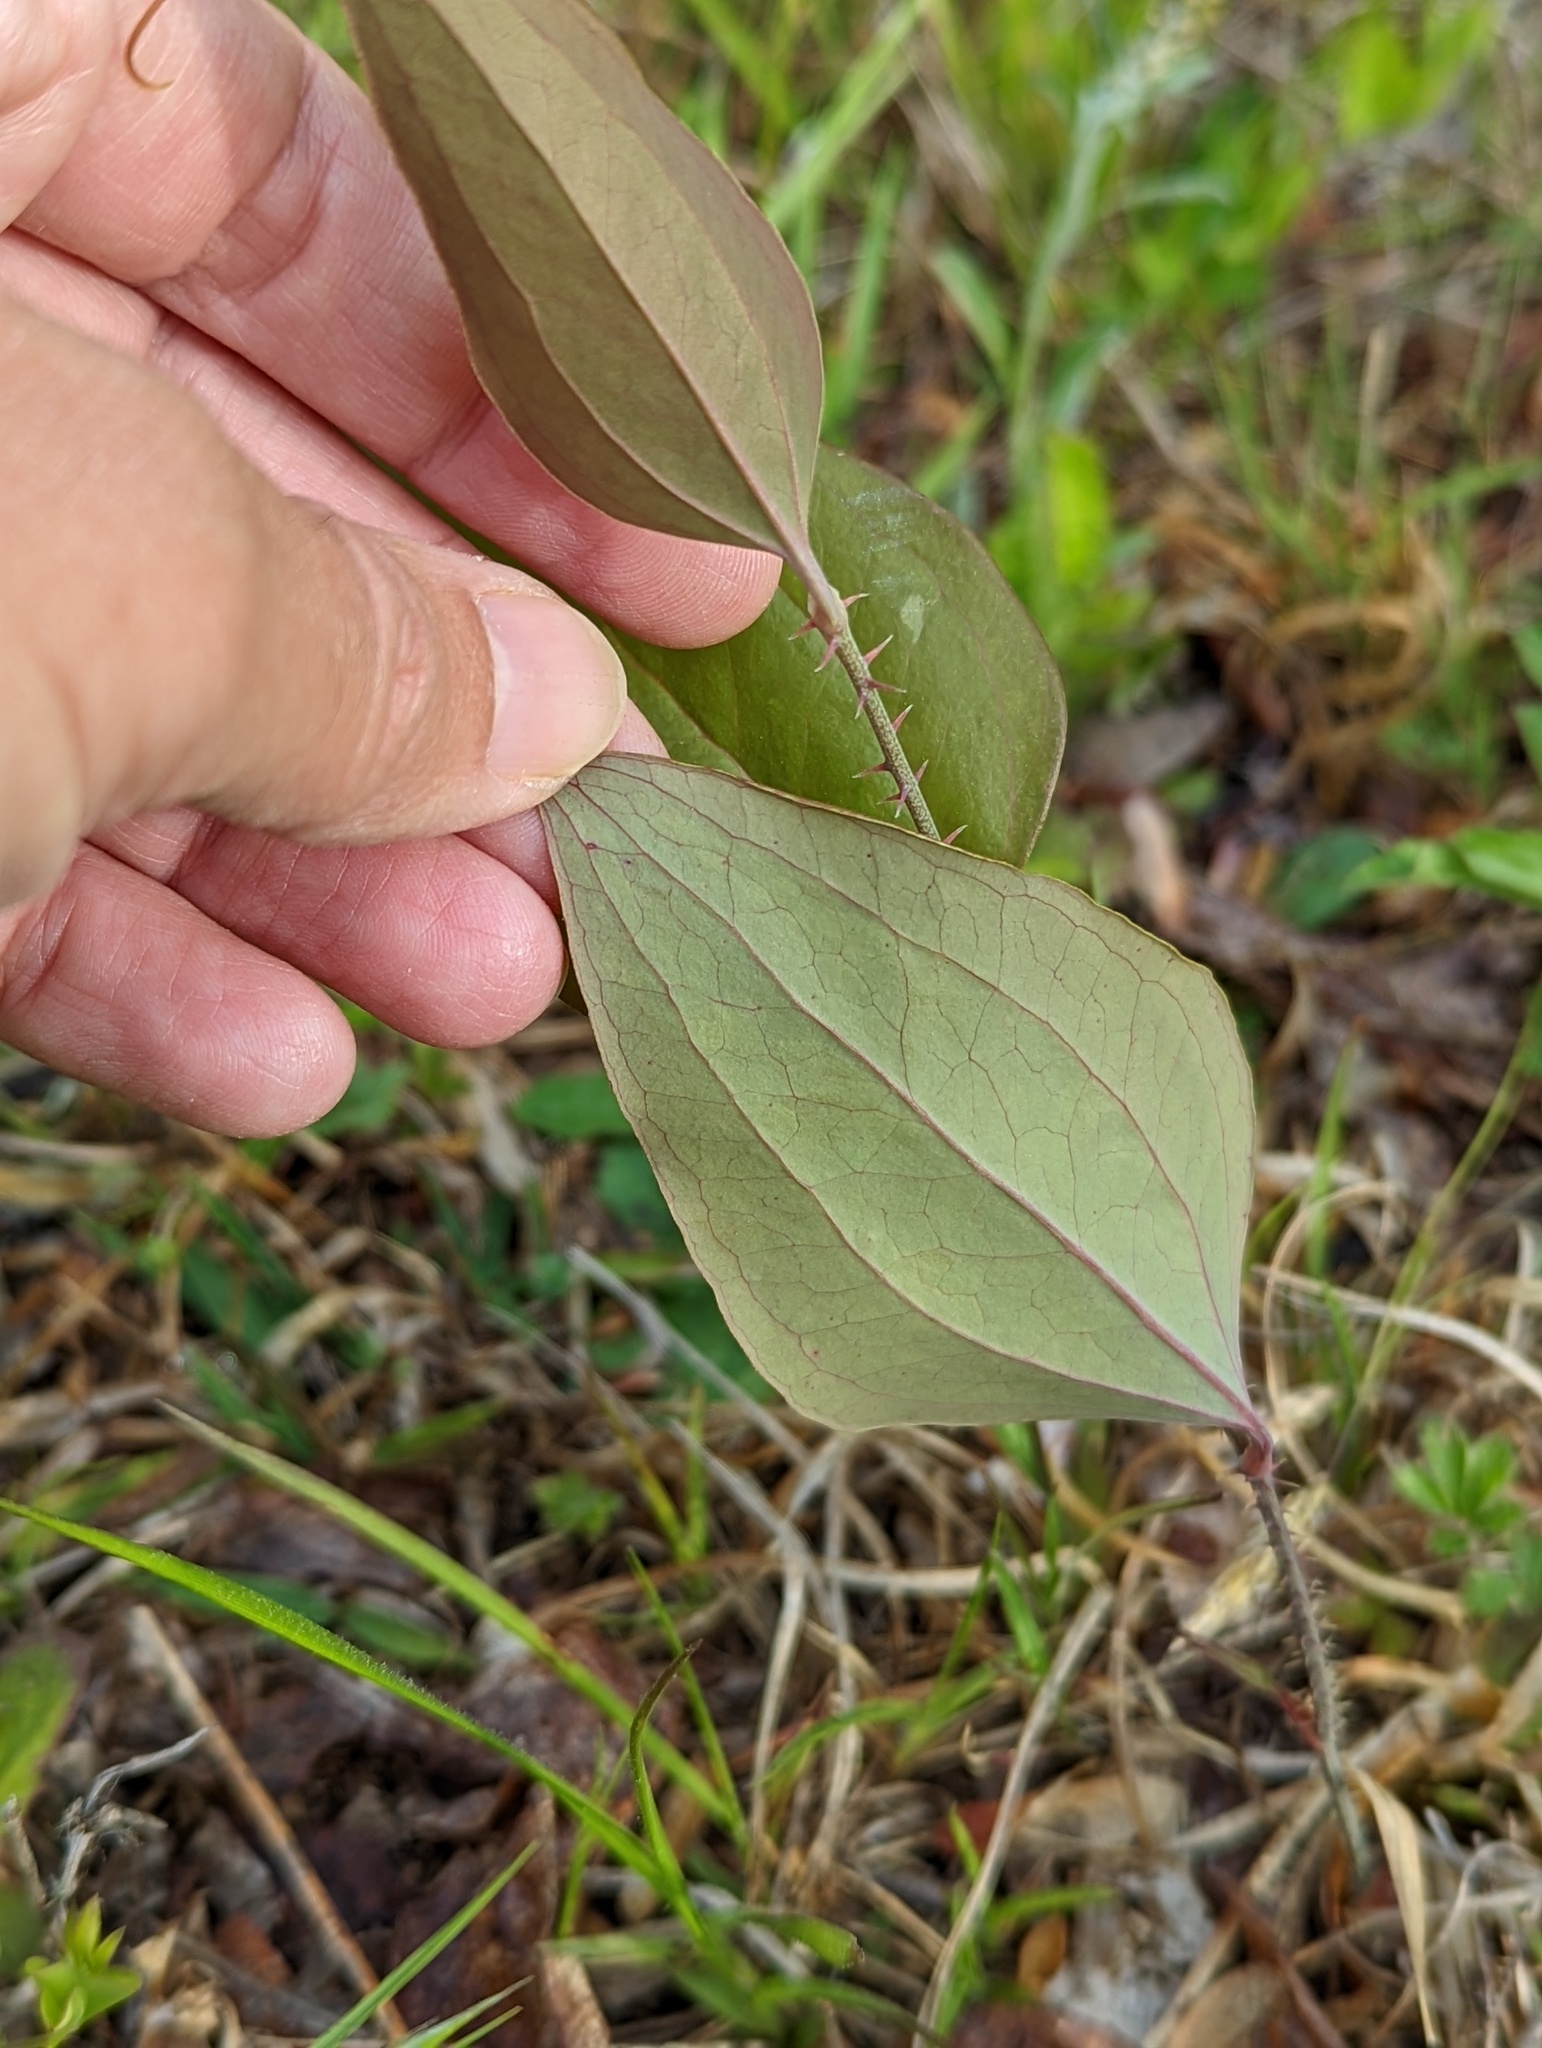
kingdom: Plantae
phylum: Tracheophyta
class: Liliopsida
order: Liliales
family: Smilacaceae
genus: Smilax
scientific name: Smilax glauca
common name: Cat greenbrier
